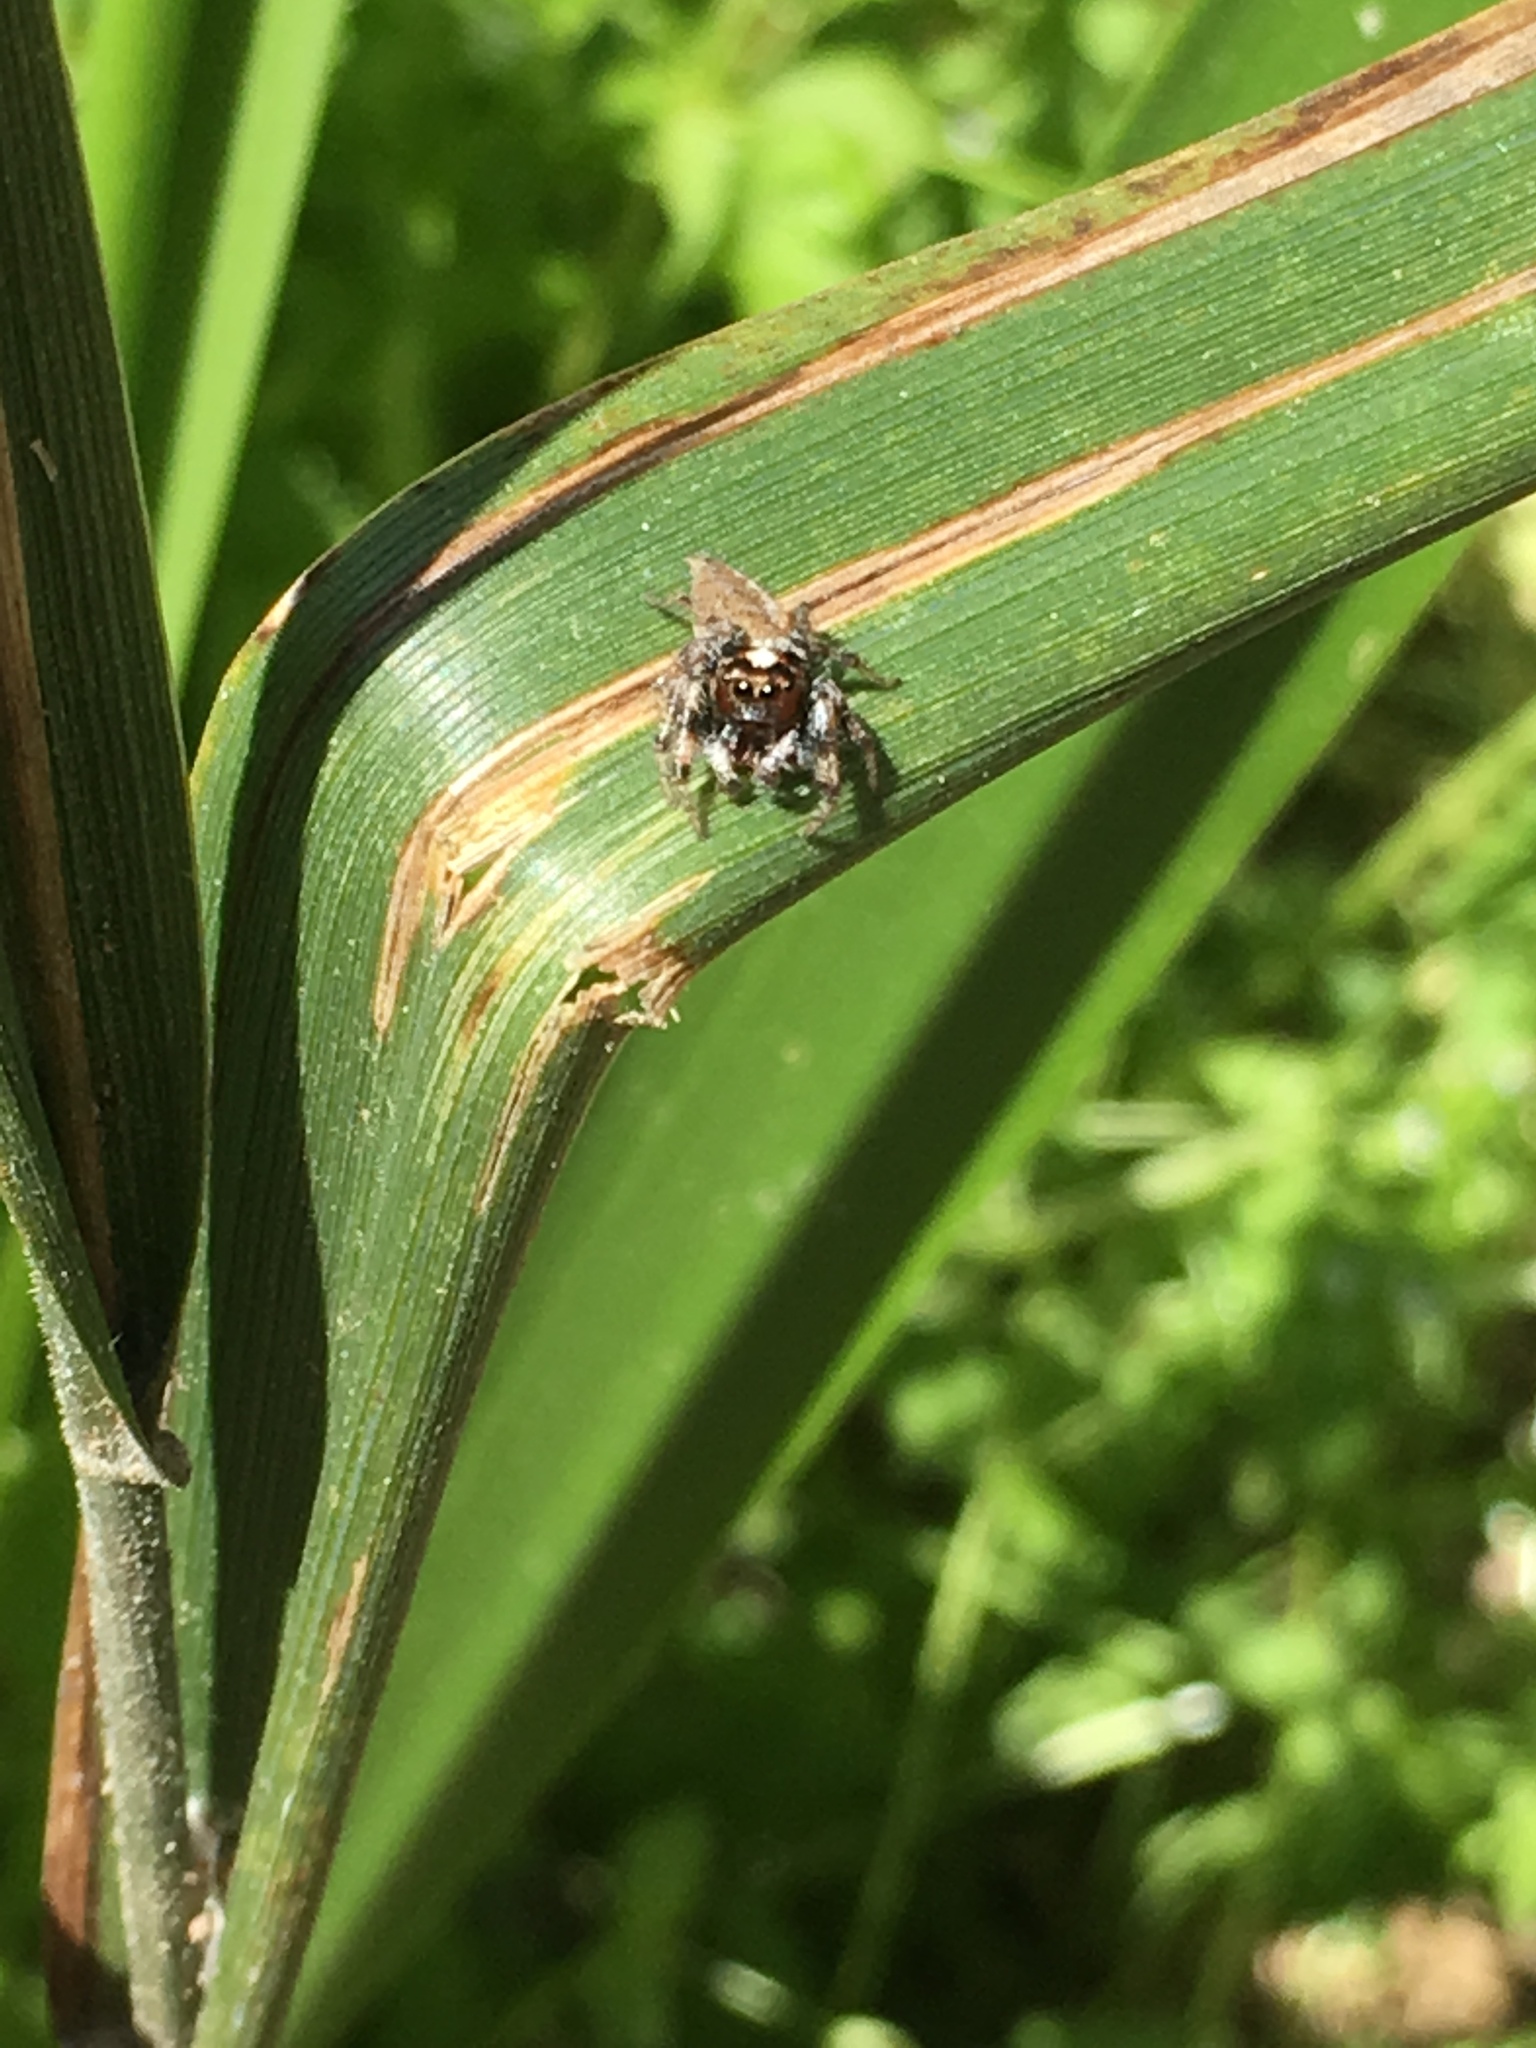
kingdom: Animalia
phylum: Arthropoda
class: Arachnida
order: Araneae
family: Salticidae
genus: Colonus
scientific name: Colonus hesperus
